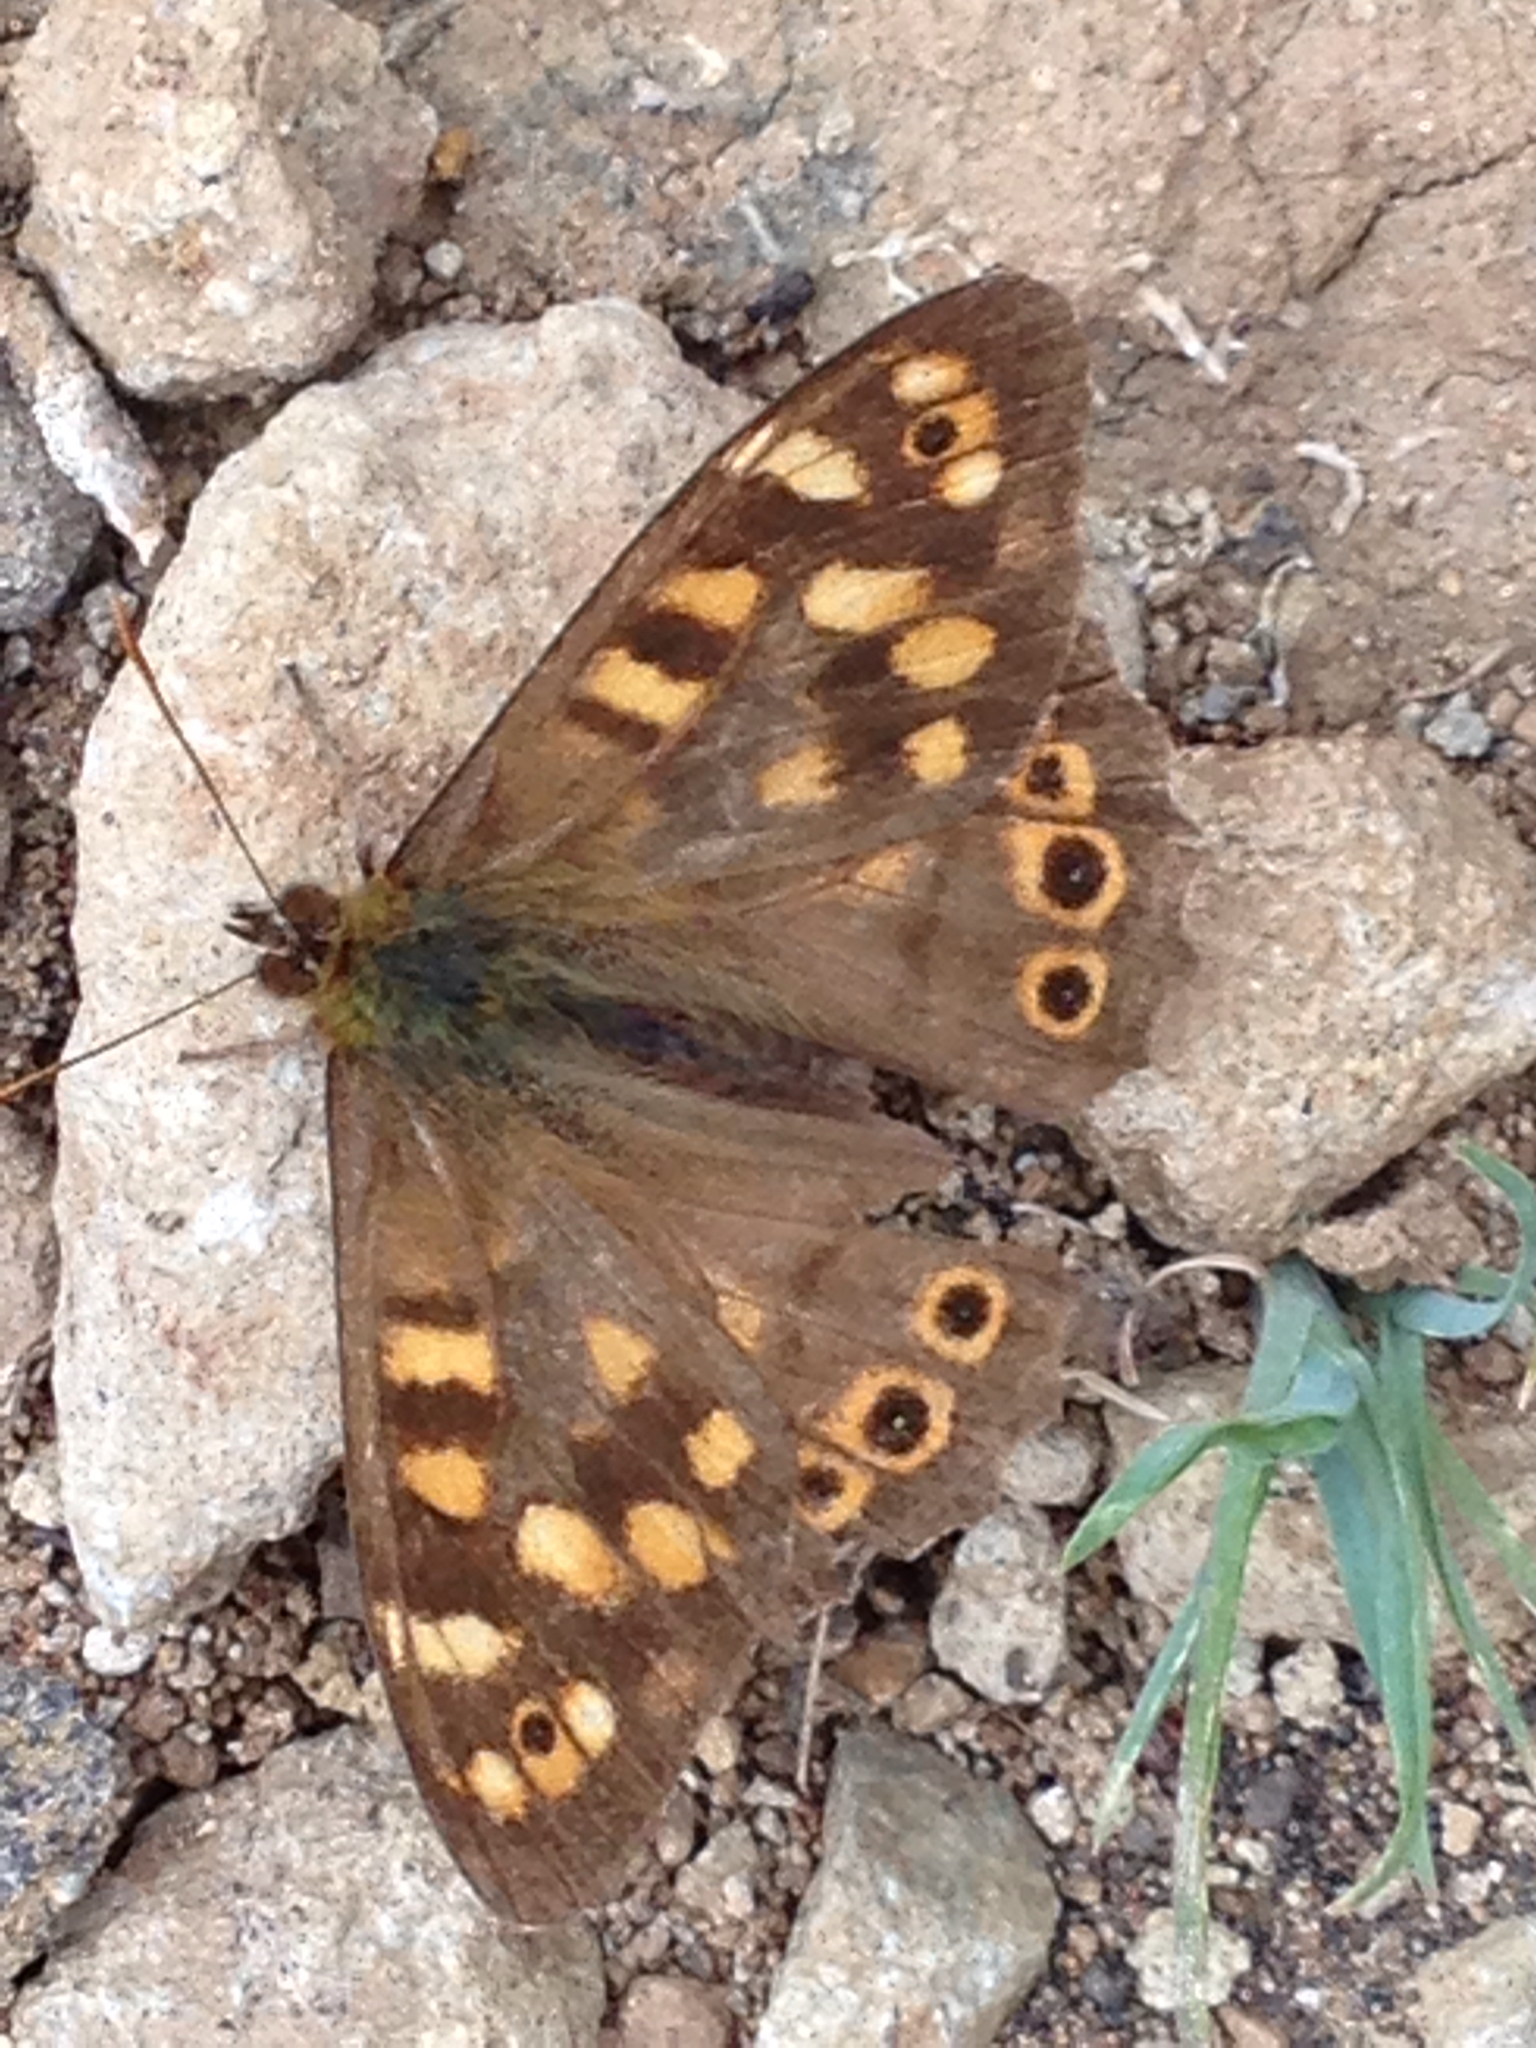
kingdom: Animalia
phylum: Arthropoda
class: Insecta
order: Lepidoptera
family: Nymphalidae
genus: Pararge
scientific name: Pararge aegeria
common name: Speckled wood
